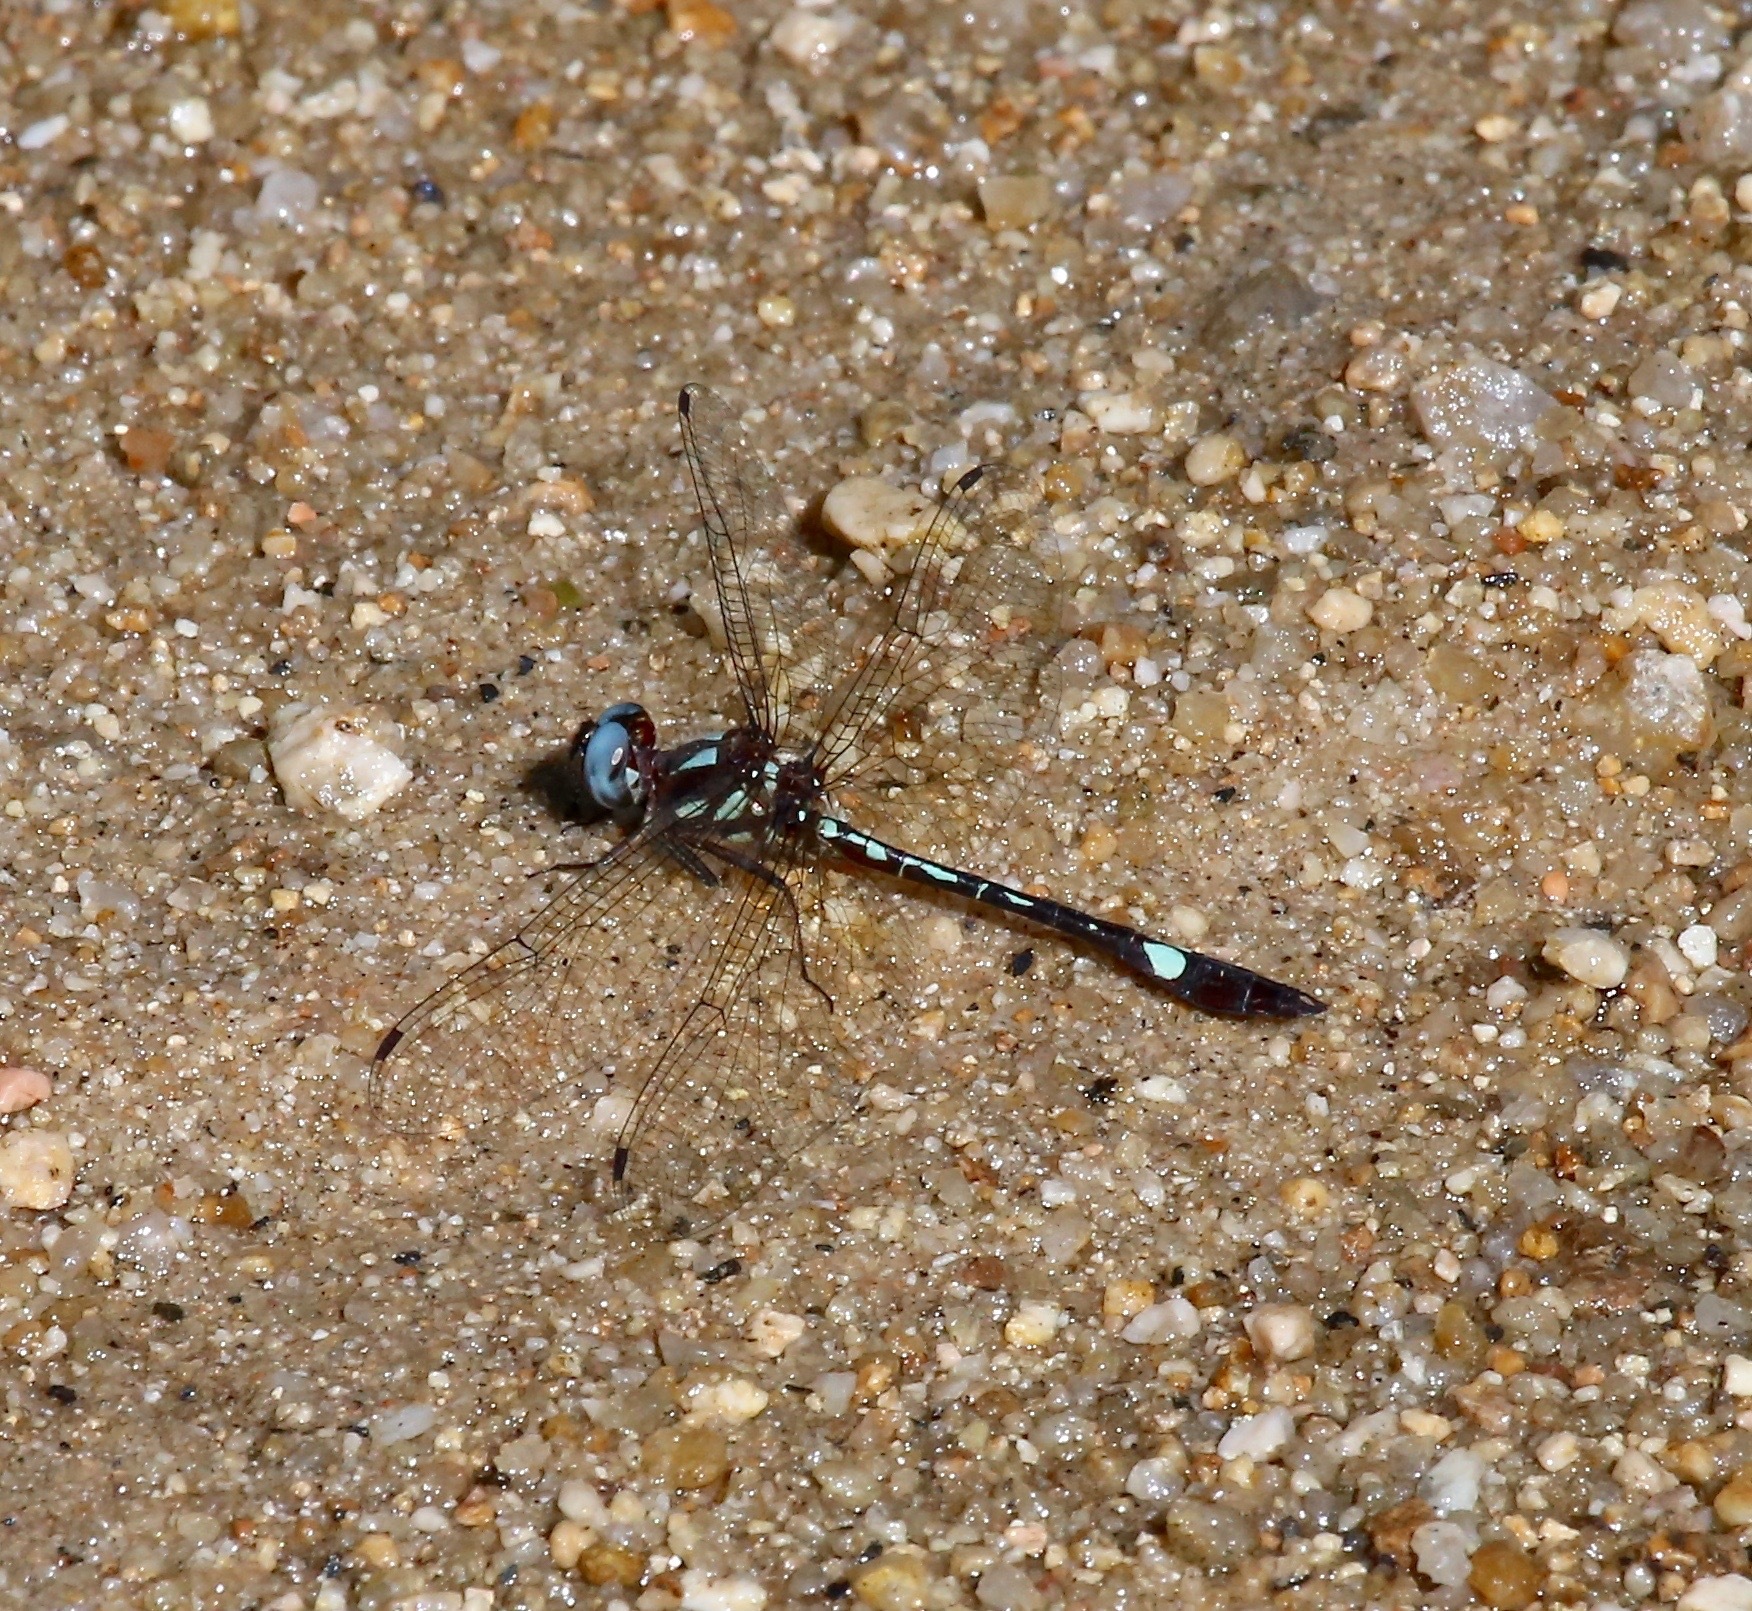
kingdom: Animalia
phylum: Arthropoda
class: Insecta
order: Odonata
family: Libellulidae
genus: Macrothemis
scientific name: Macrothemis pseudimitans
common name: White-tailed sylph
